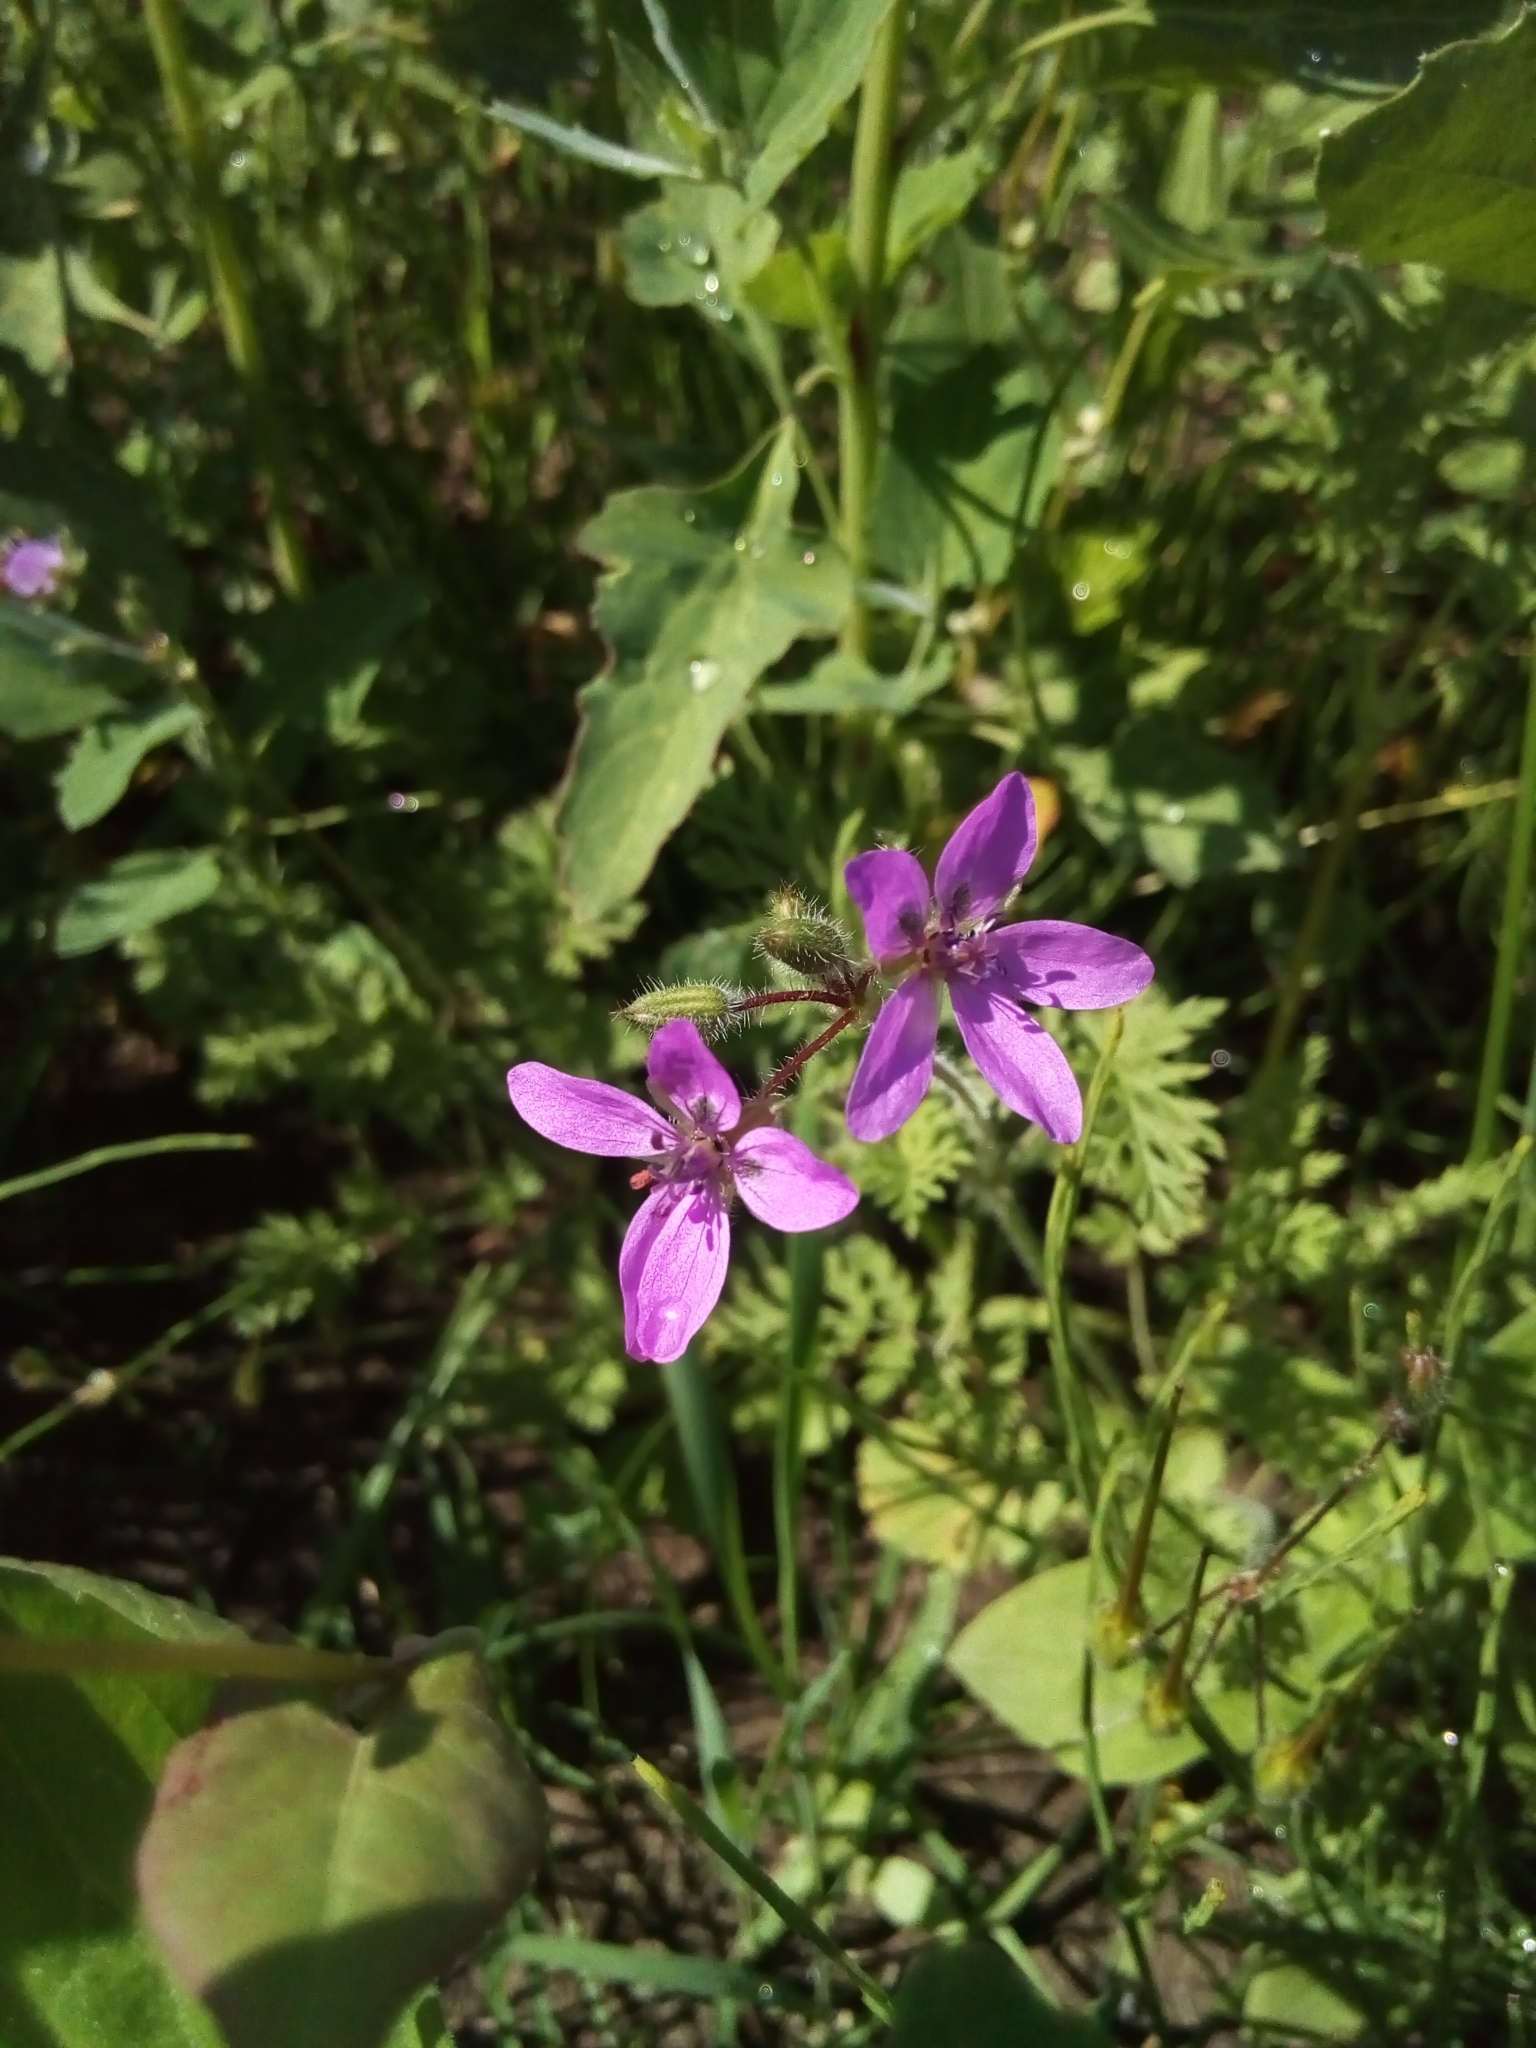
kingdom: Plantae
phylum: Tracheophyta
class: Magnoliopsida
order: Geraniales
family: Geraniaceae
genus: Erodium
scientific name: Erodium cicutarium
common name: Common stork's-bill
